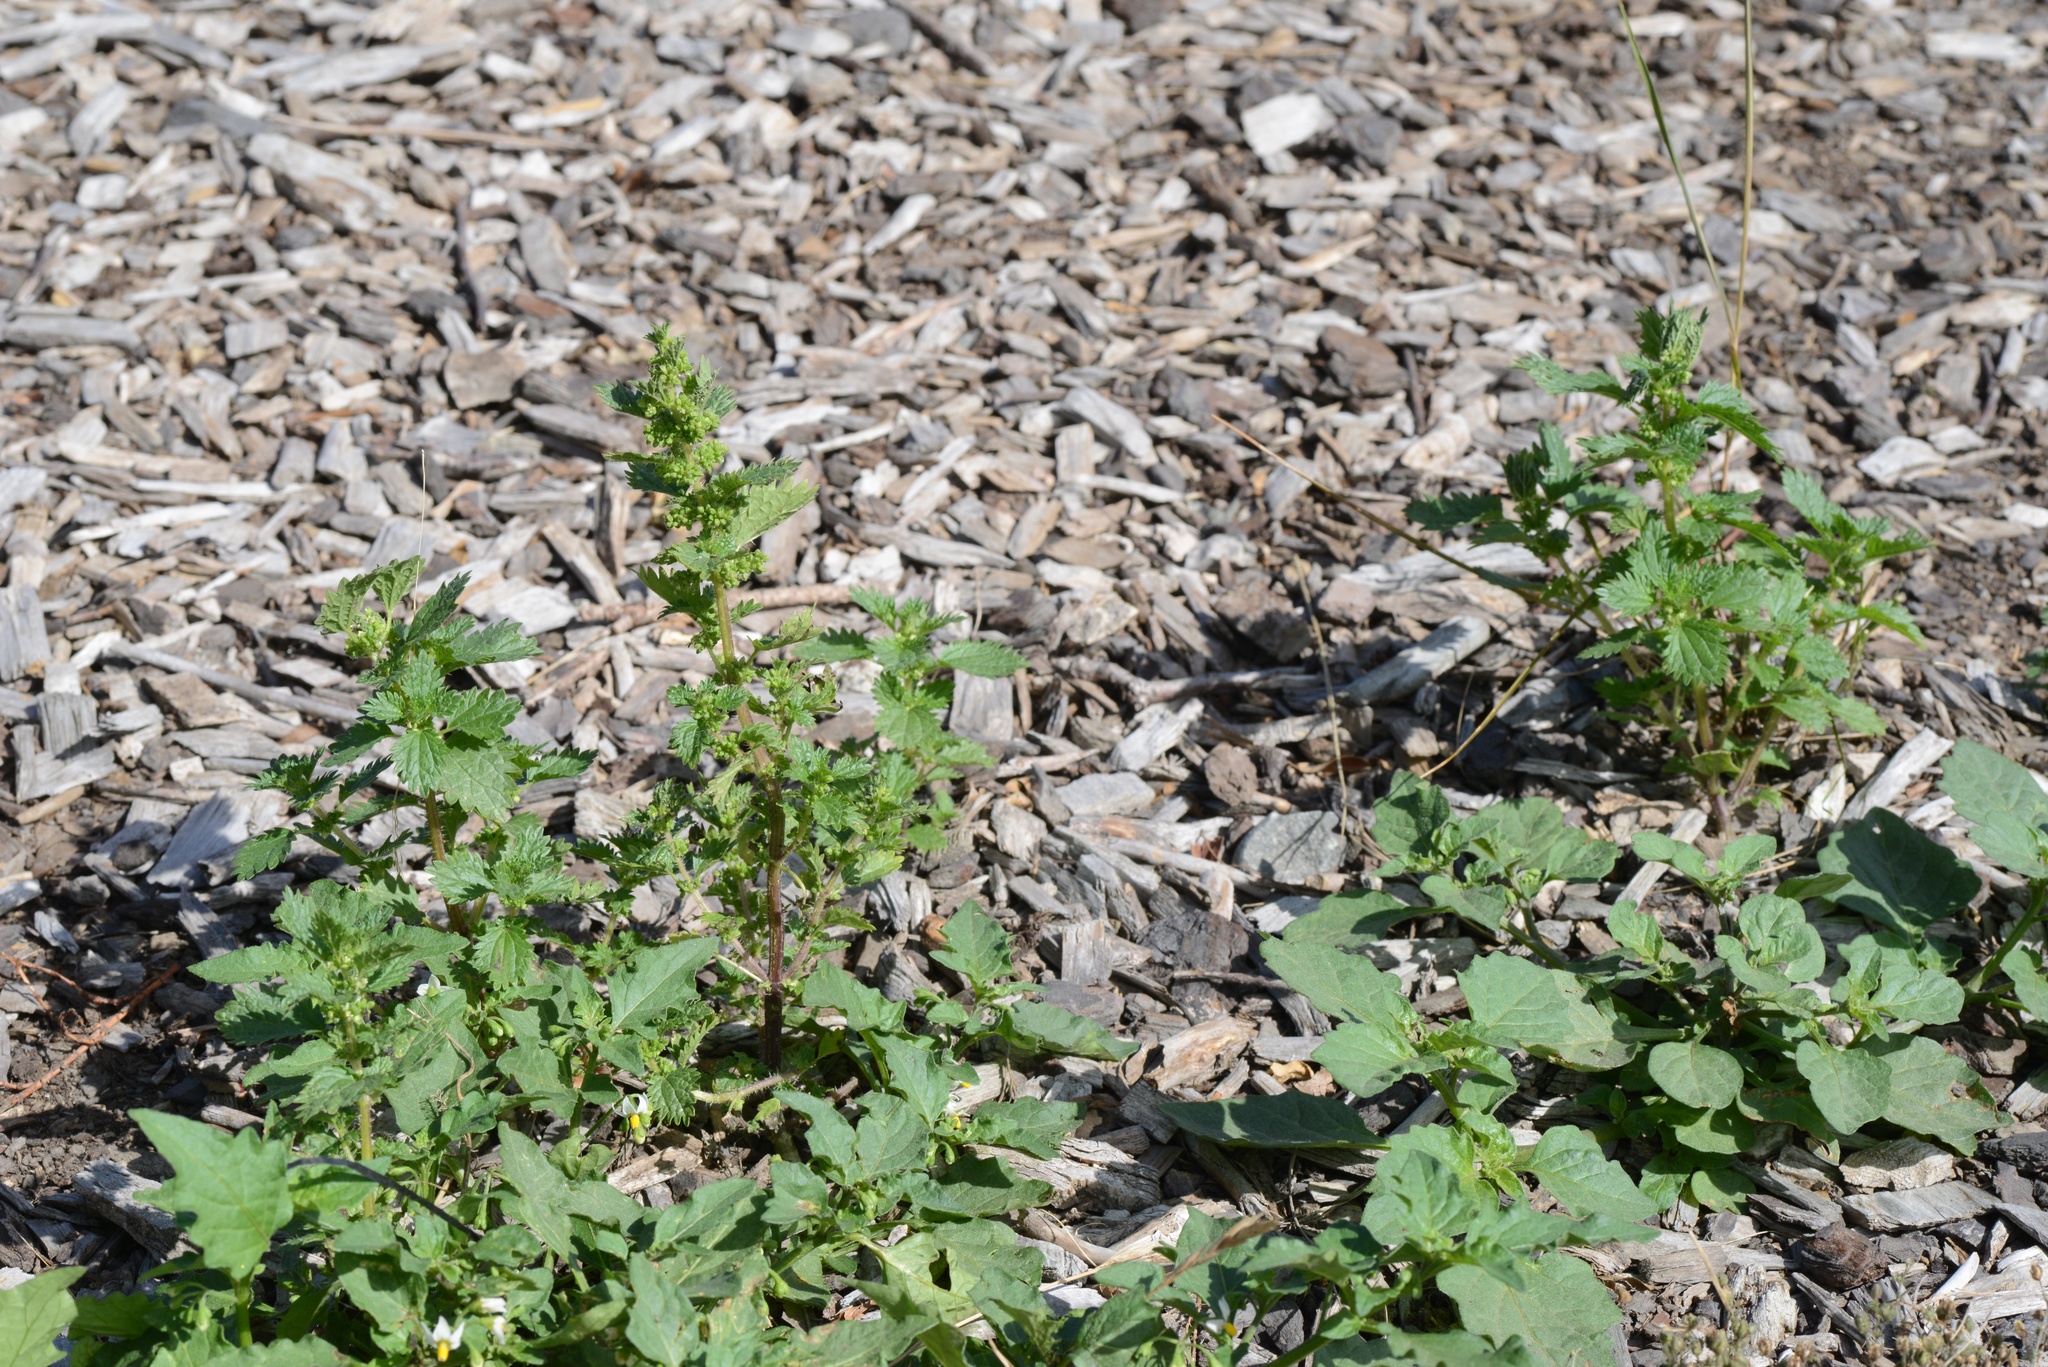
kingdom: Plantae
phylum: Tracheophyta
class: Magnoliopsida
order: Rosales
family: Urticaceae
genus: Urtica
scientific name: Urtica urens
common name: Dwarf nettle
